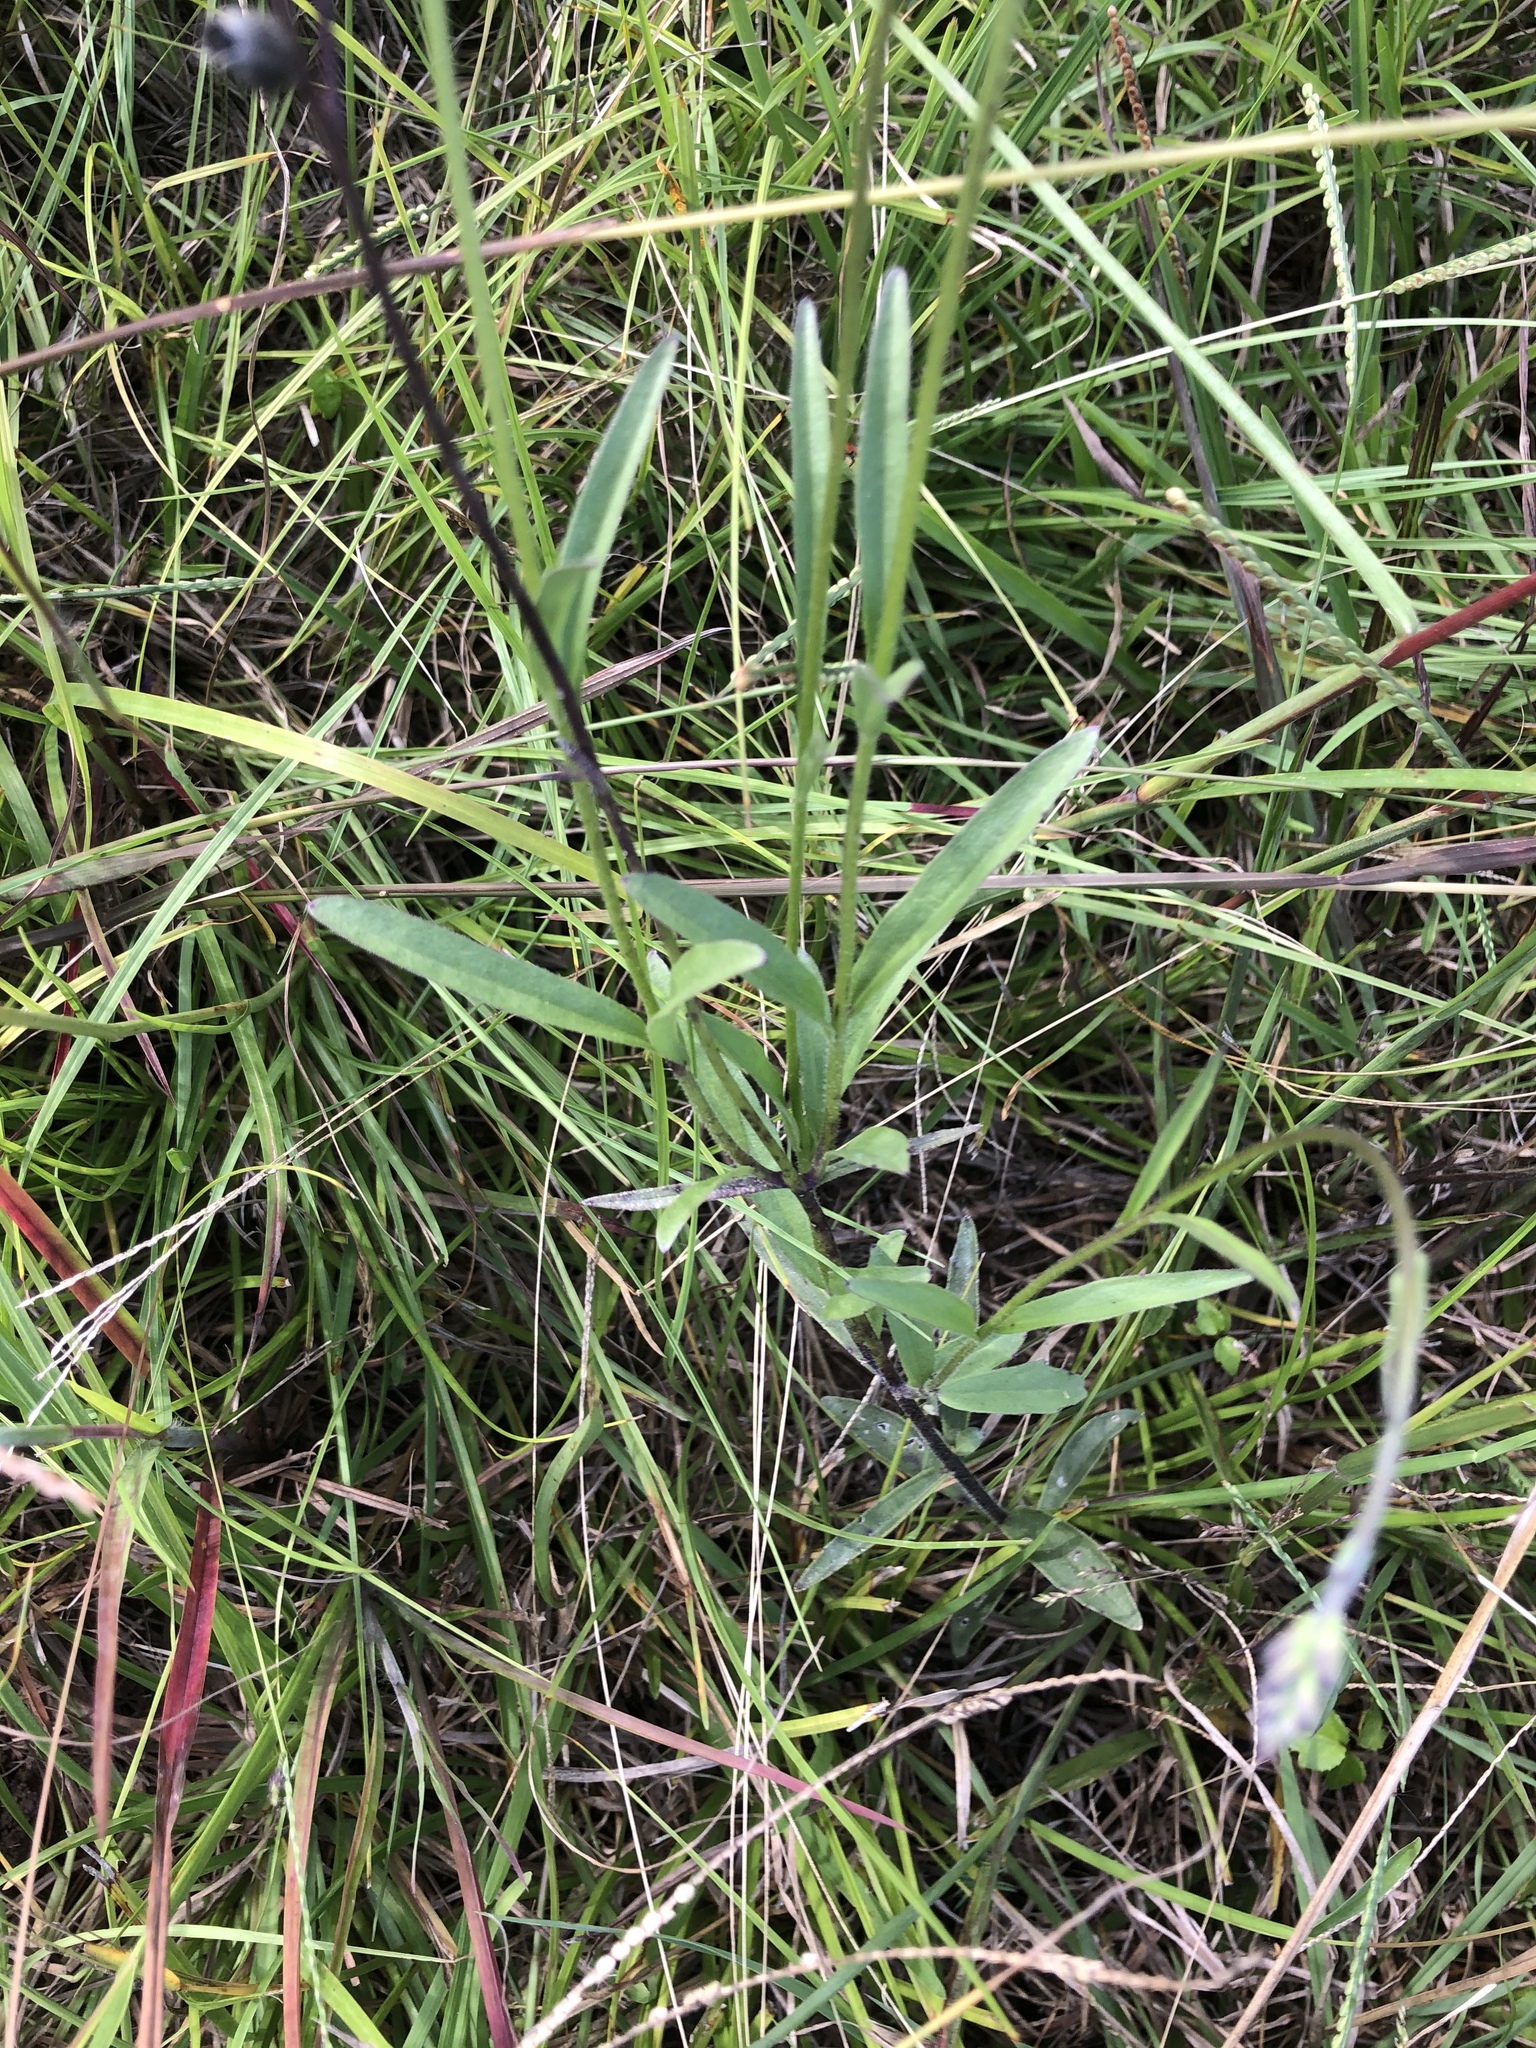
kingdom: Plantae
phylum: Tracheophyta
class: Magnoliopsida
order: Lamiales
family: Orobanchaceae
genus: Buchnera
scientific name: Buchnera floridana
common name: Florida bluehearts
